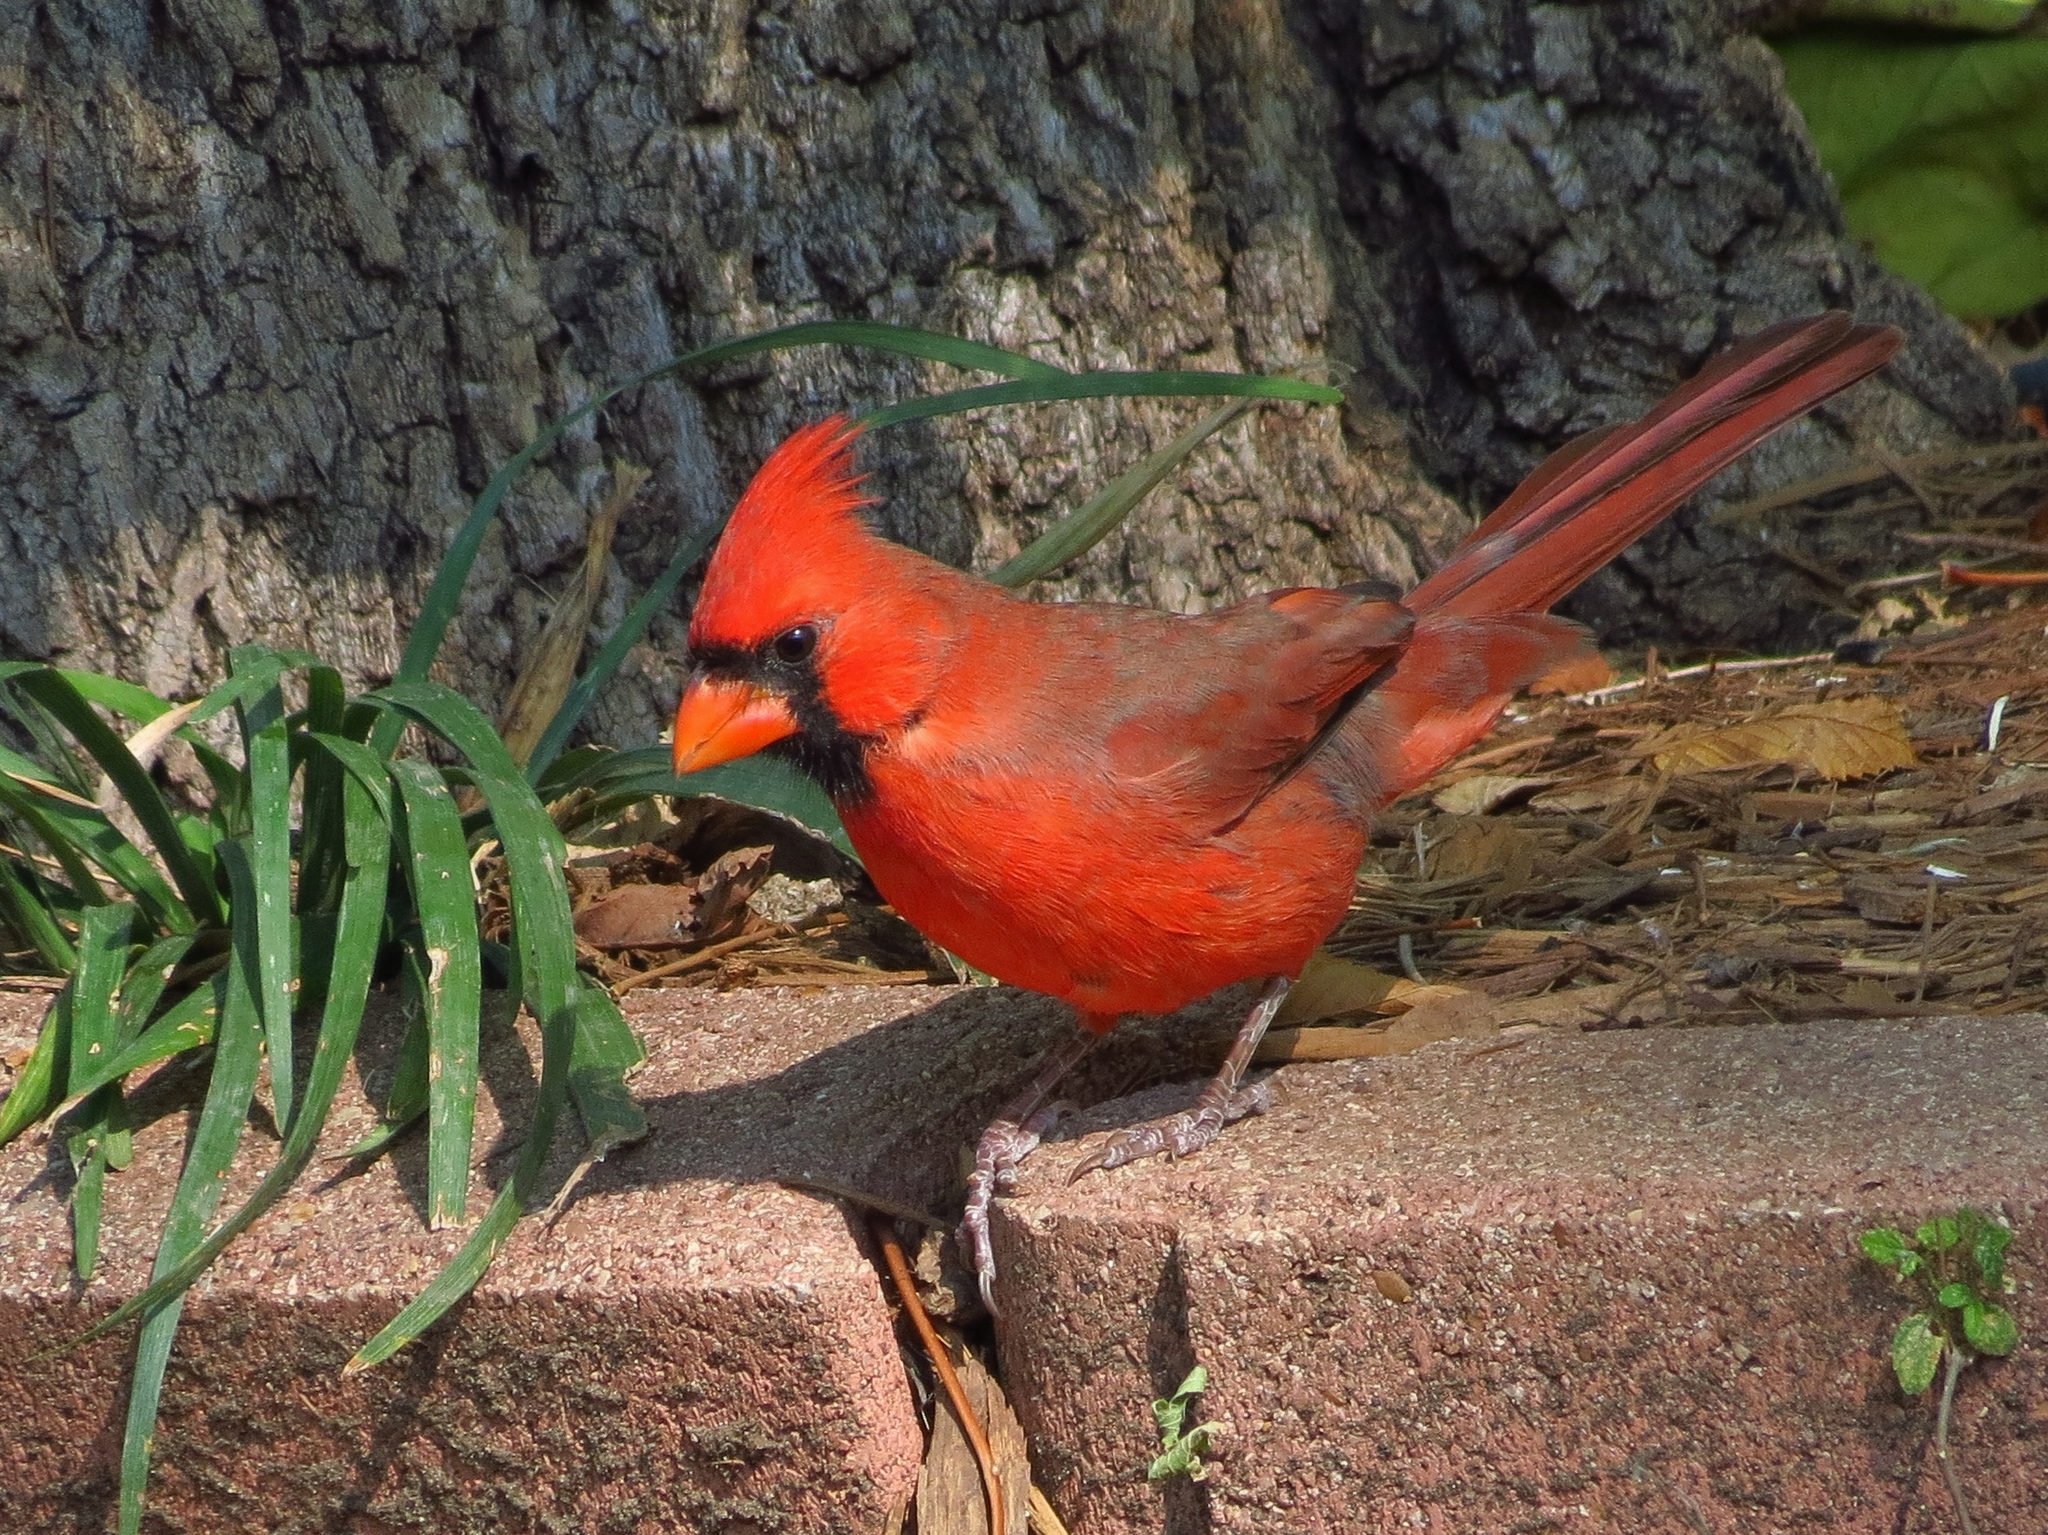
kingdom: Animalia
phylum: Chordata
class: Aves
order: Passeriformes
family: Cardinalidae
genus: Cardinalis
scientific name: Cardinalis cardinalis
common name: Northern cardinal
